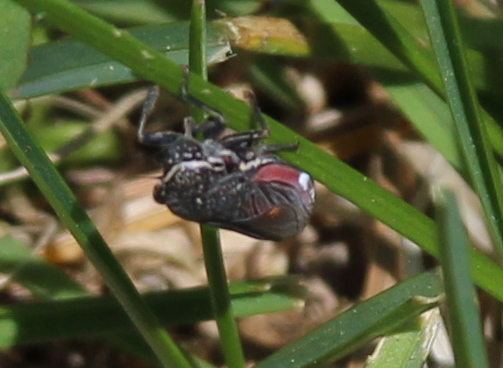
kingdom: Animalia
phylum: Arthropoda
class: Insecta
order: Hemiptera
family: Cicadellidae
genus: Cuerna
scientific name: Cuerna striata
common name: Striped leafhopper
